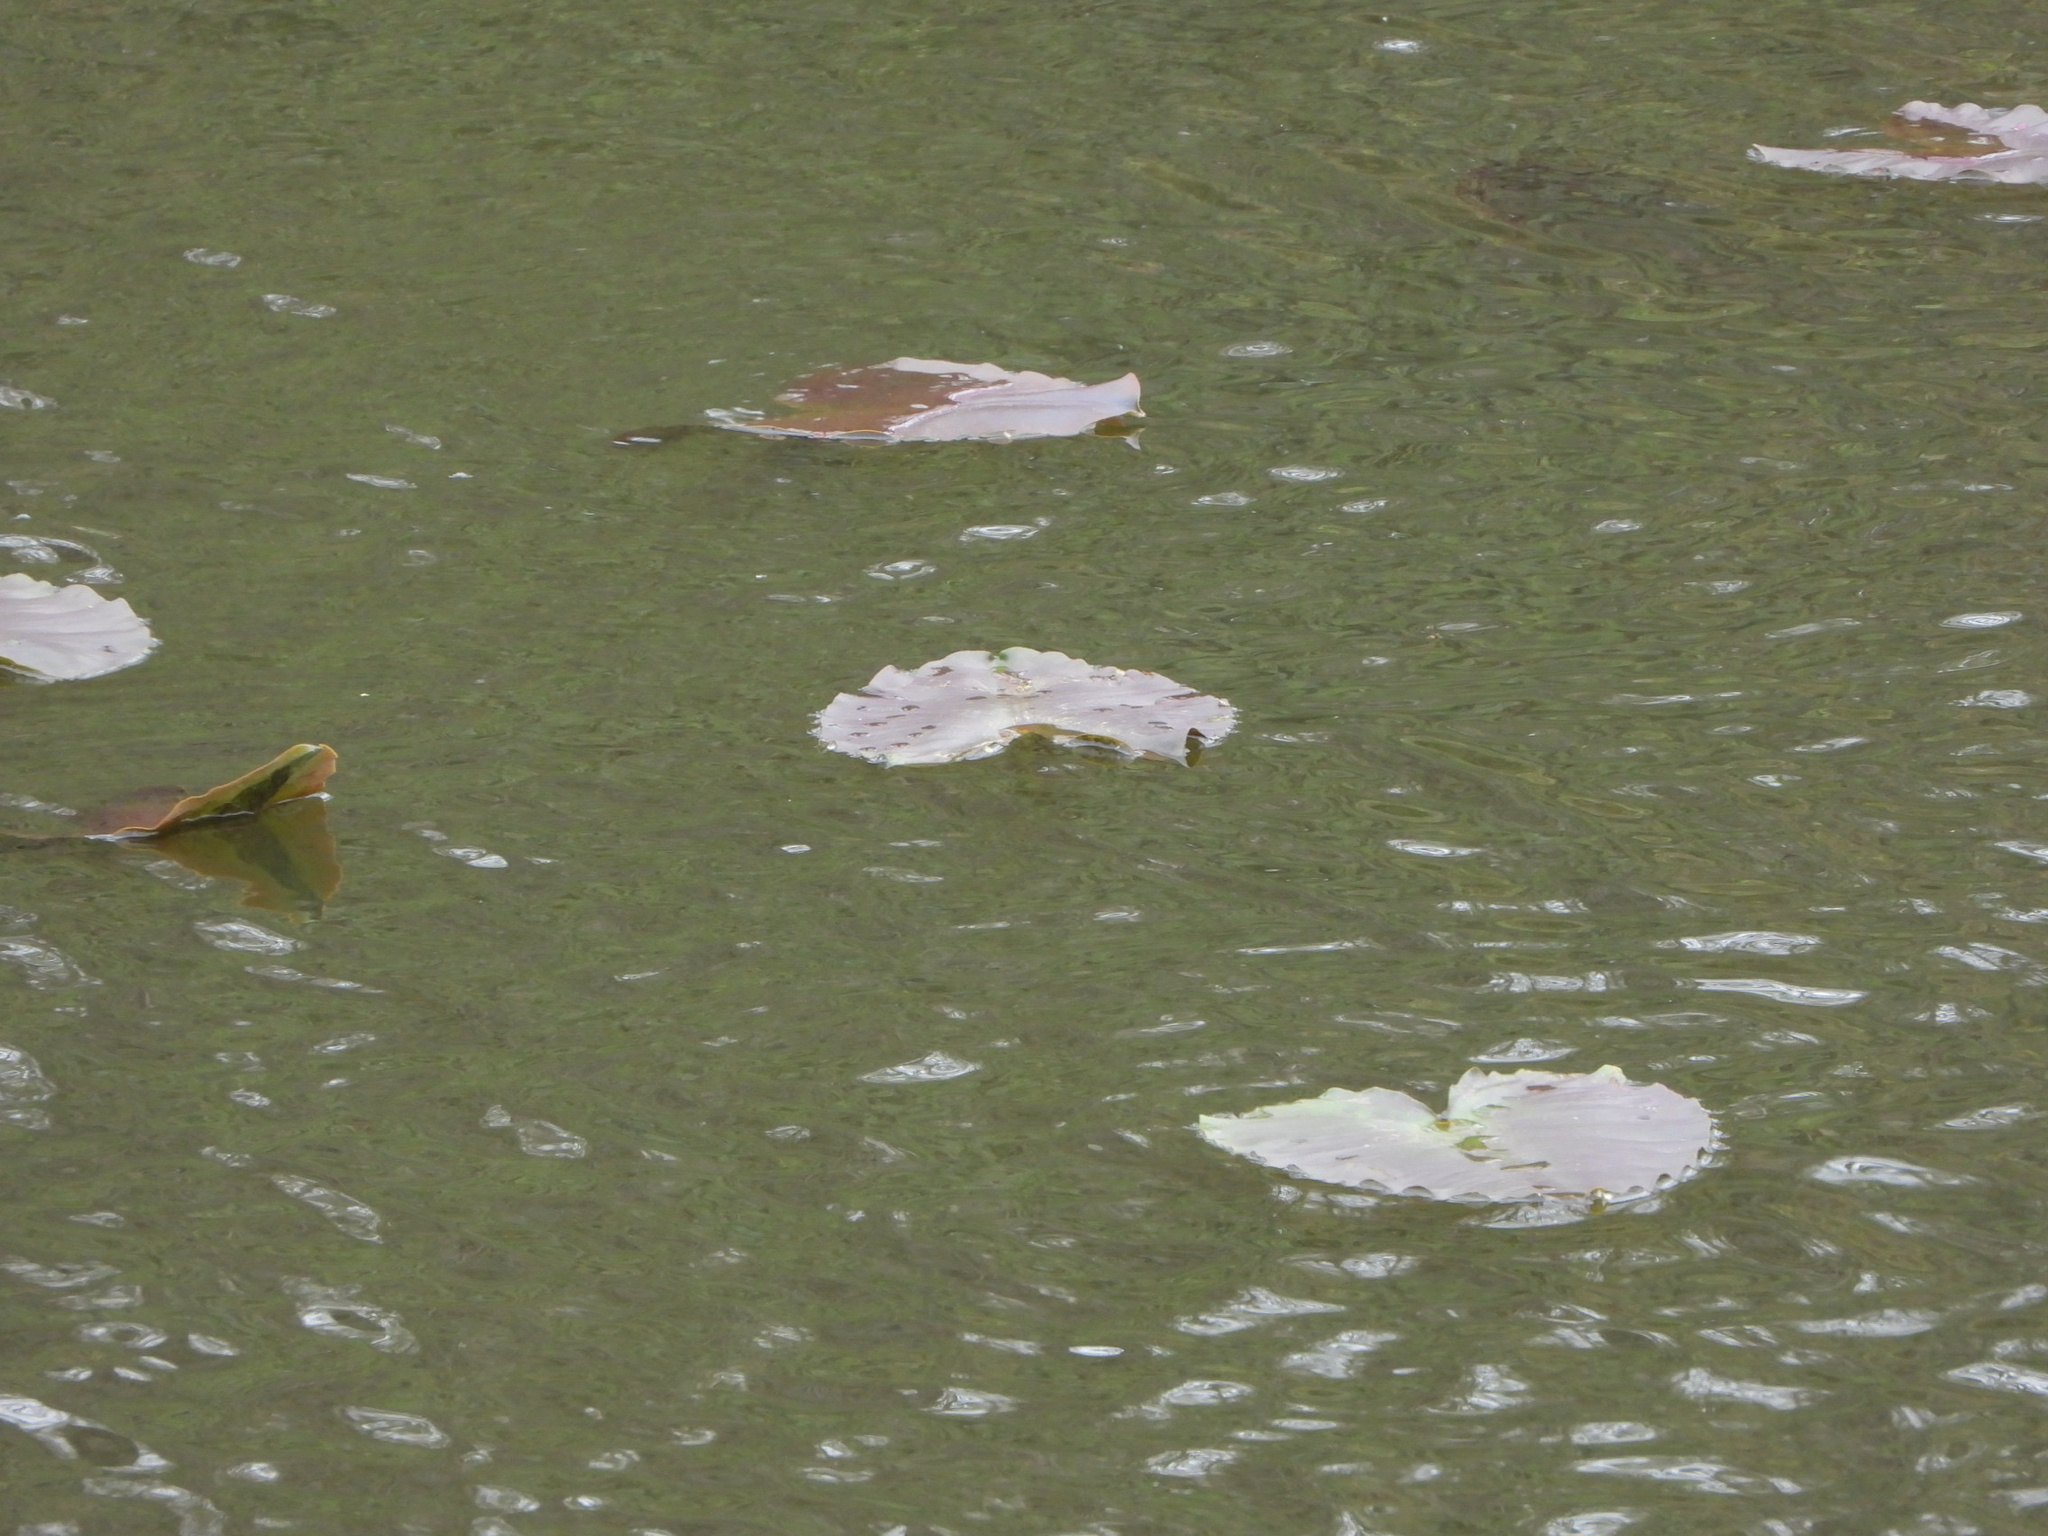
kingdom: Plantae
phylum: Tracheophyta
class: Magnoliopsida
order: Nymphaeales
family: Nymphaeaceae
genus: Nuphar
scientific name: Nuphar polysepala
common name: Rocky mountain cow-lily
